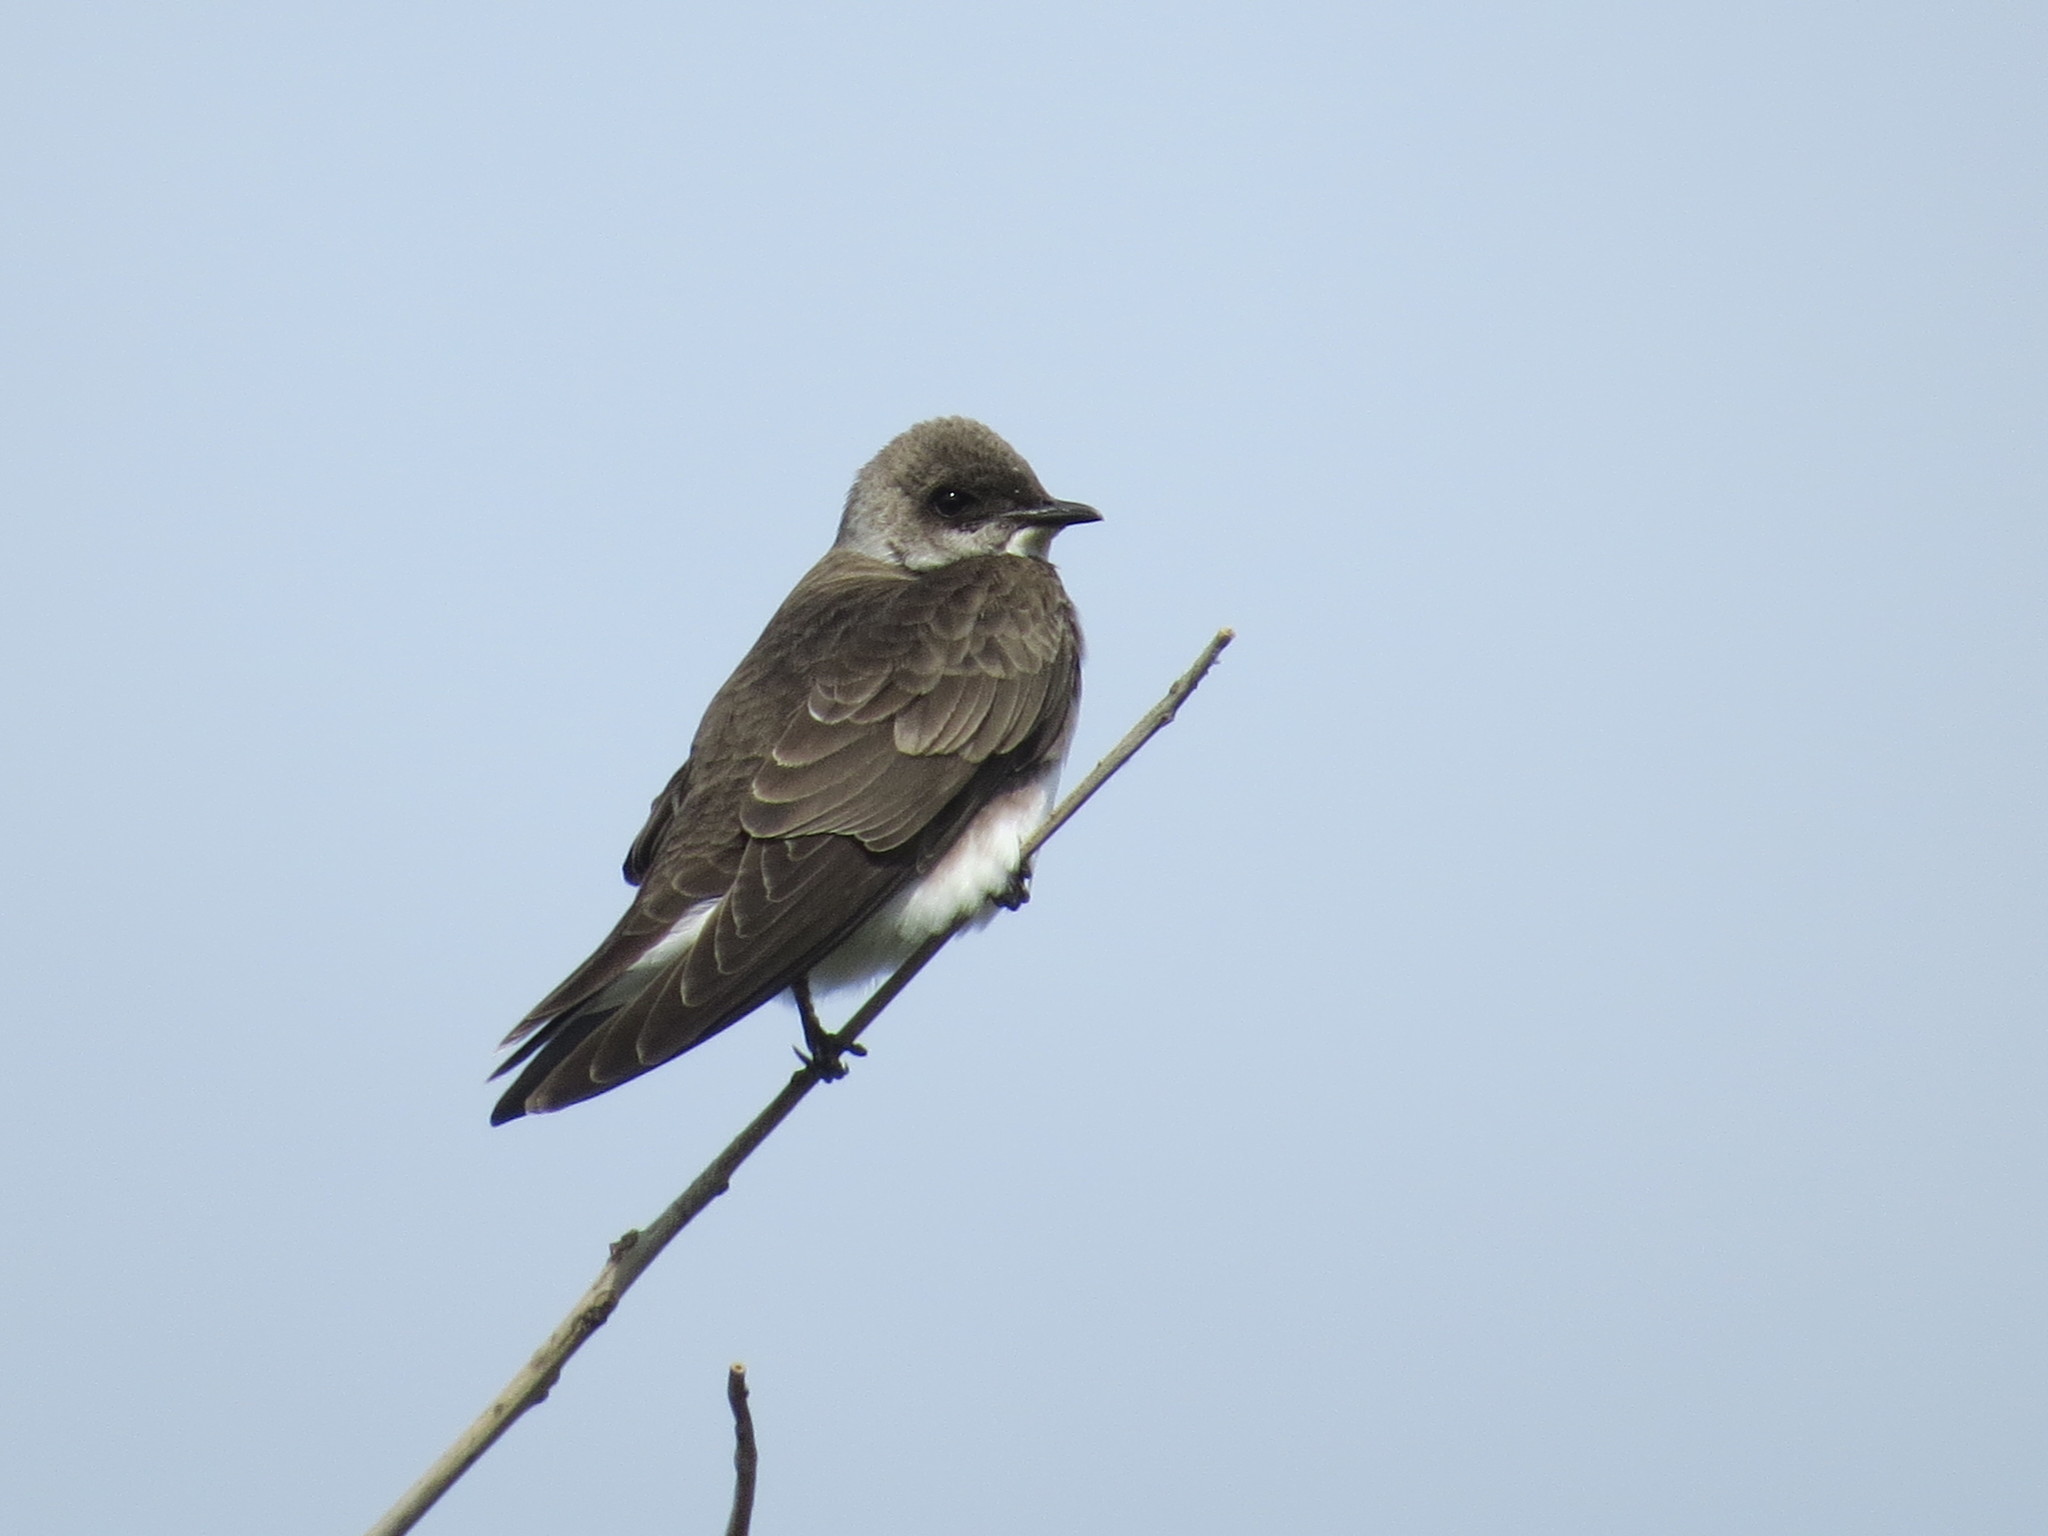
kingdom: Animalia
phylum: Chordata
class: Aves
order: Passeriformes
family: Hirundinidae
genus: Progne
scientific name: Progne tapera
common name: Brown-chested martin
